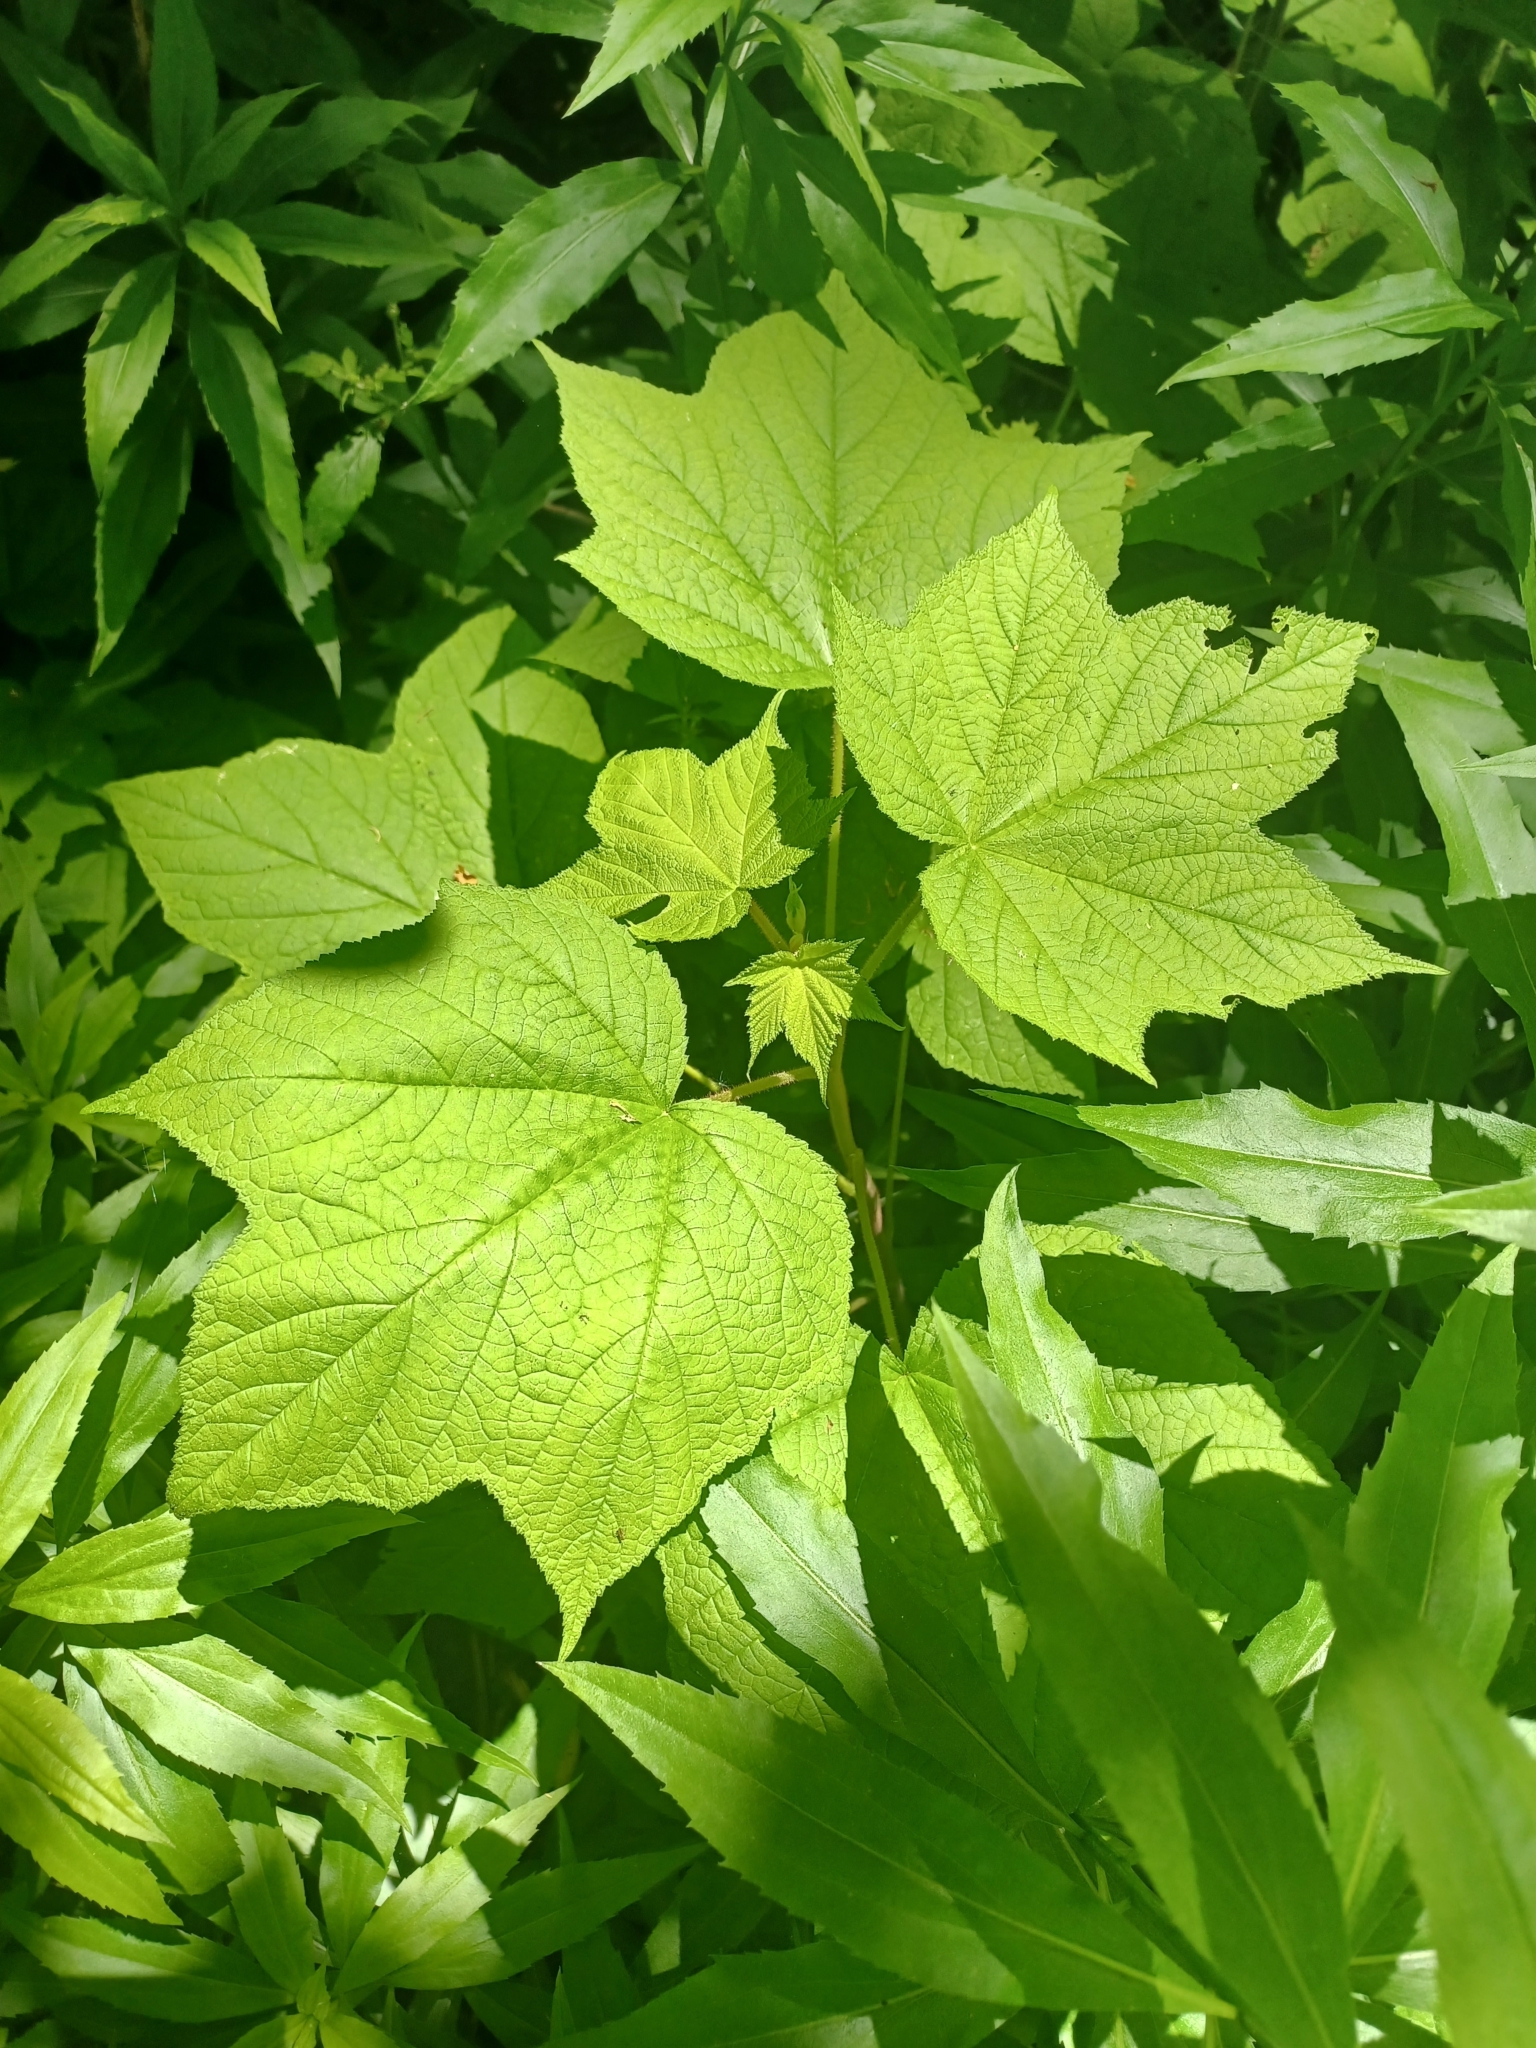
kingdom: Plantae
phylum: Tracheophyta
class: Magnoliopsida
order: Rosales
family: Rosaceae
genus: Rubus
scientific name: Rubus odoratus
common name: Purple-flowered raspberry
